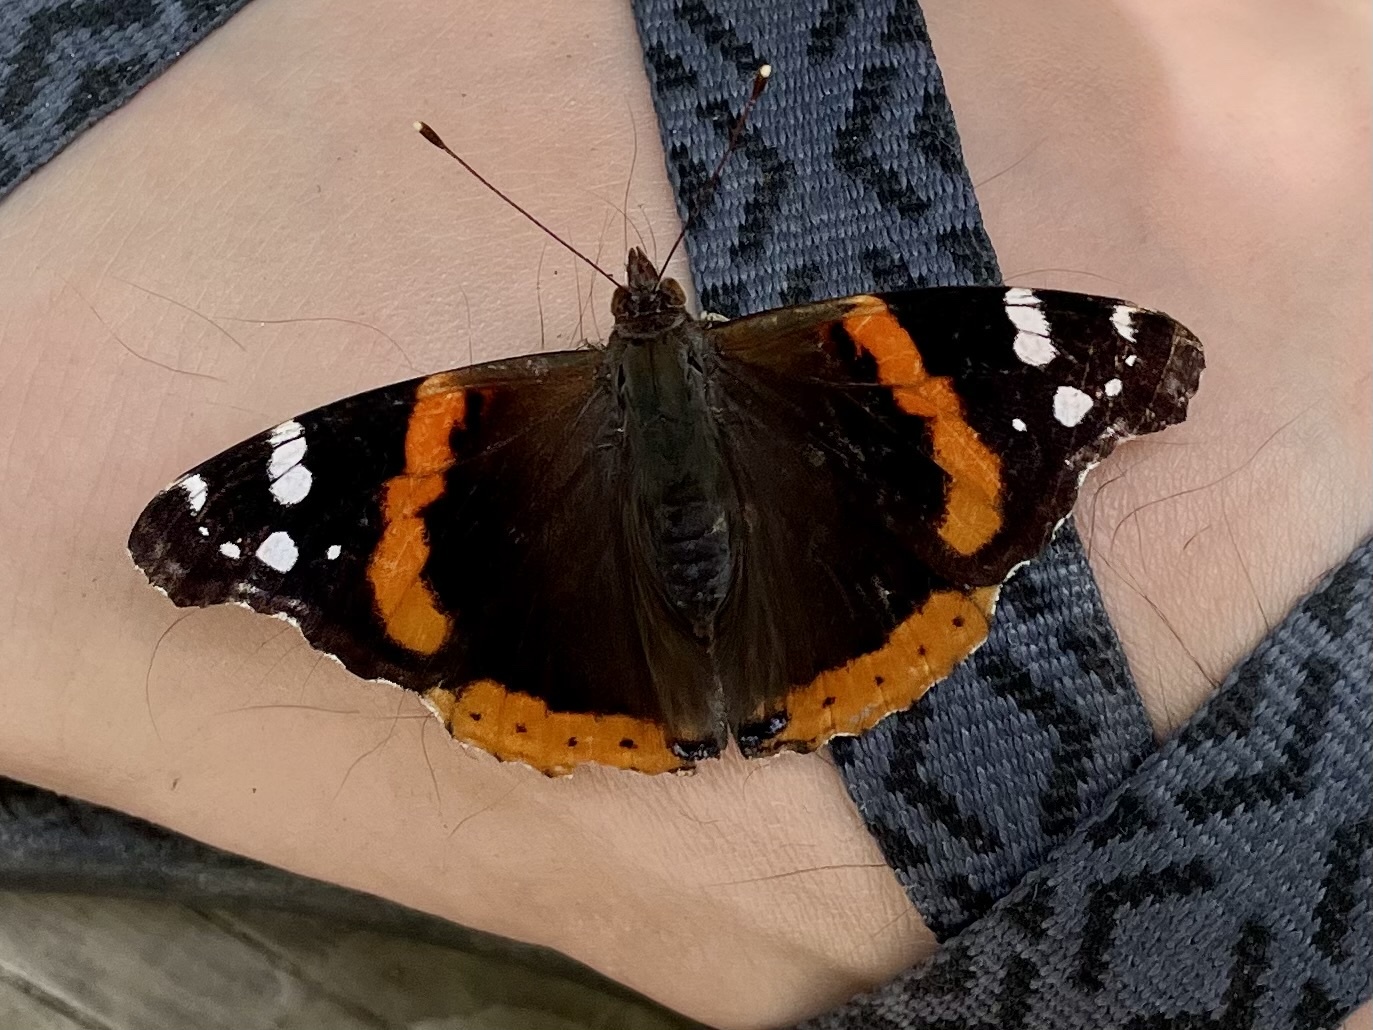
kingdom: Animalia
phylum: Arthropoda
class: Insecta
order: Lepidoptera
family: Nymphalidae
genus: Vanessa
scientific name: Vanessa atalanta
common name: Red admiral
